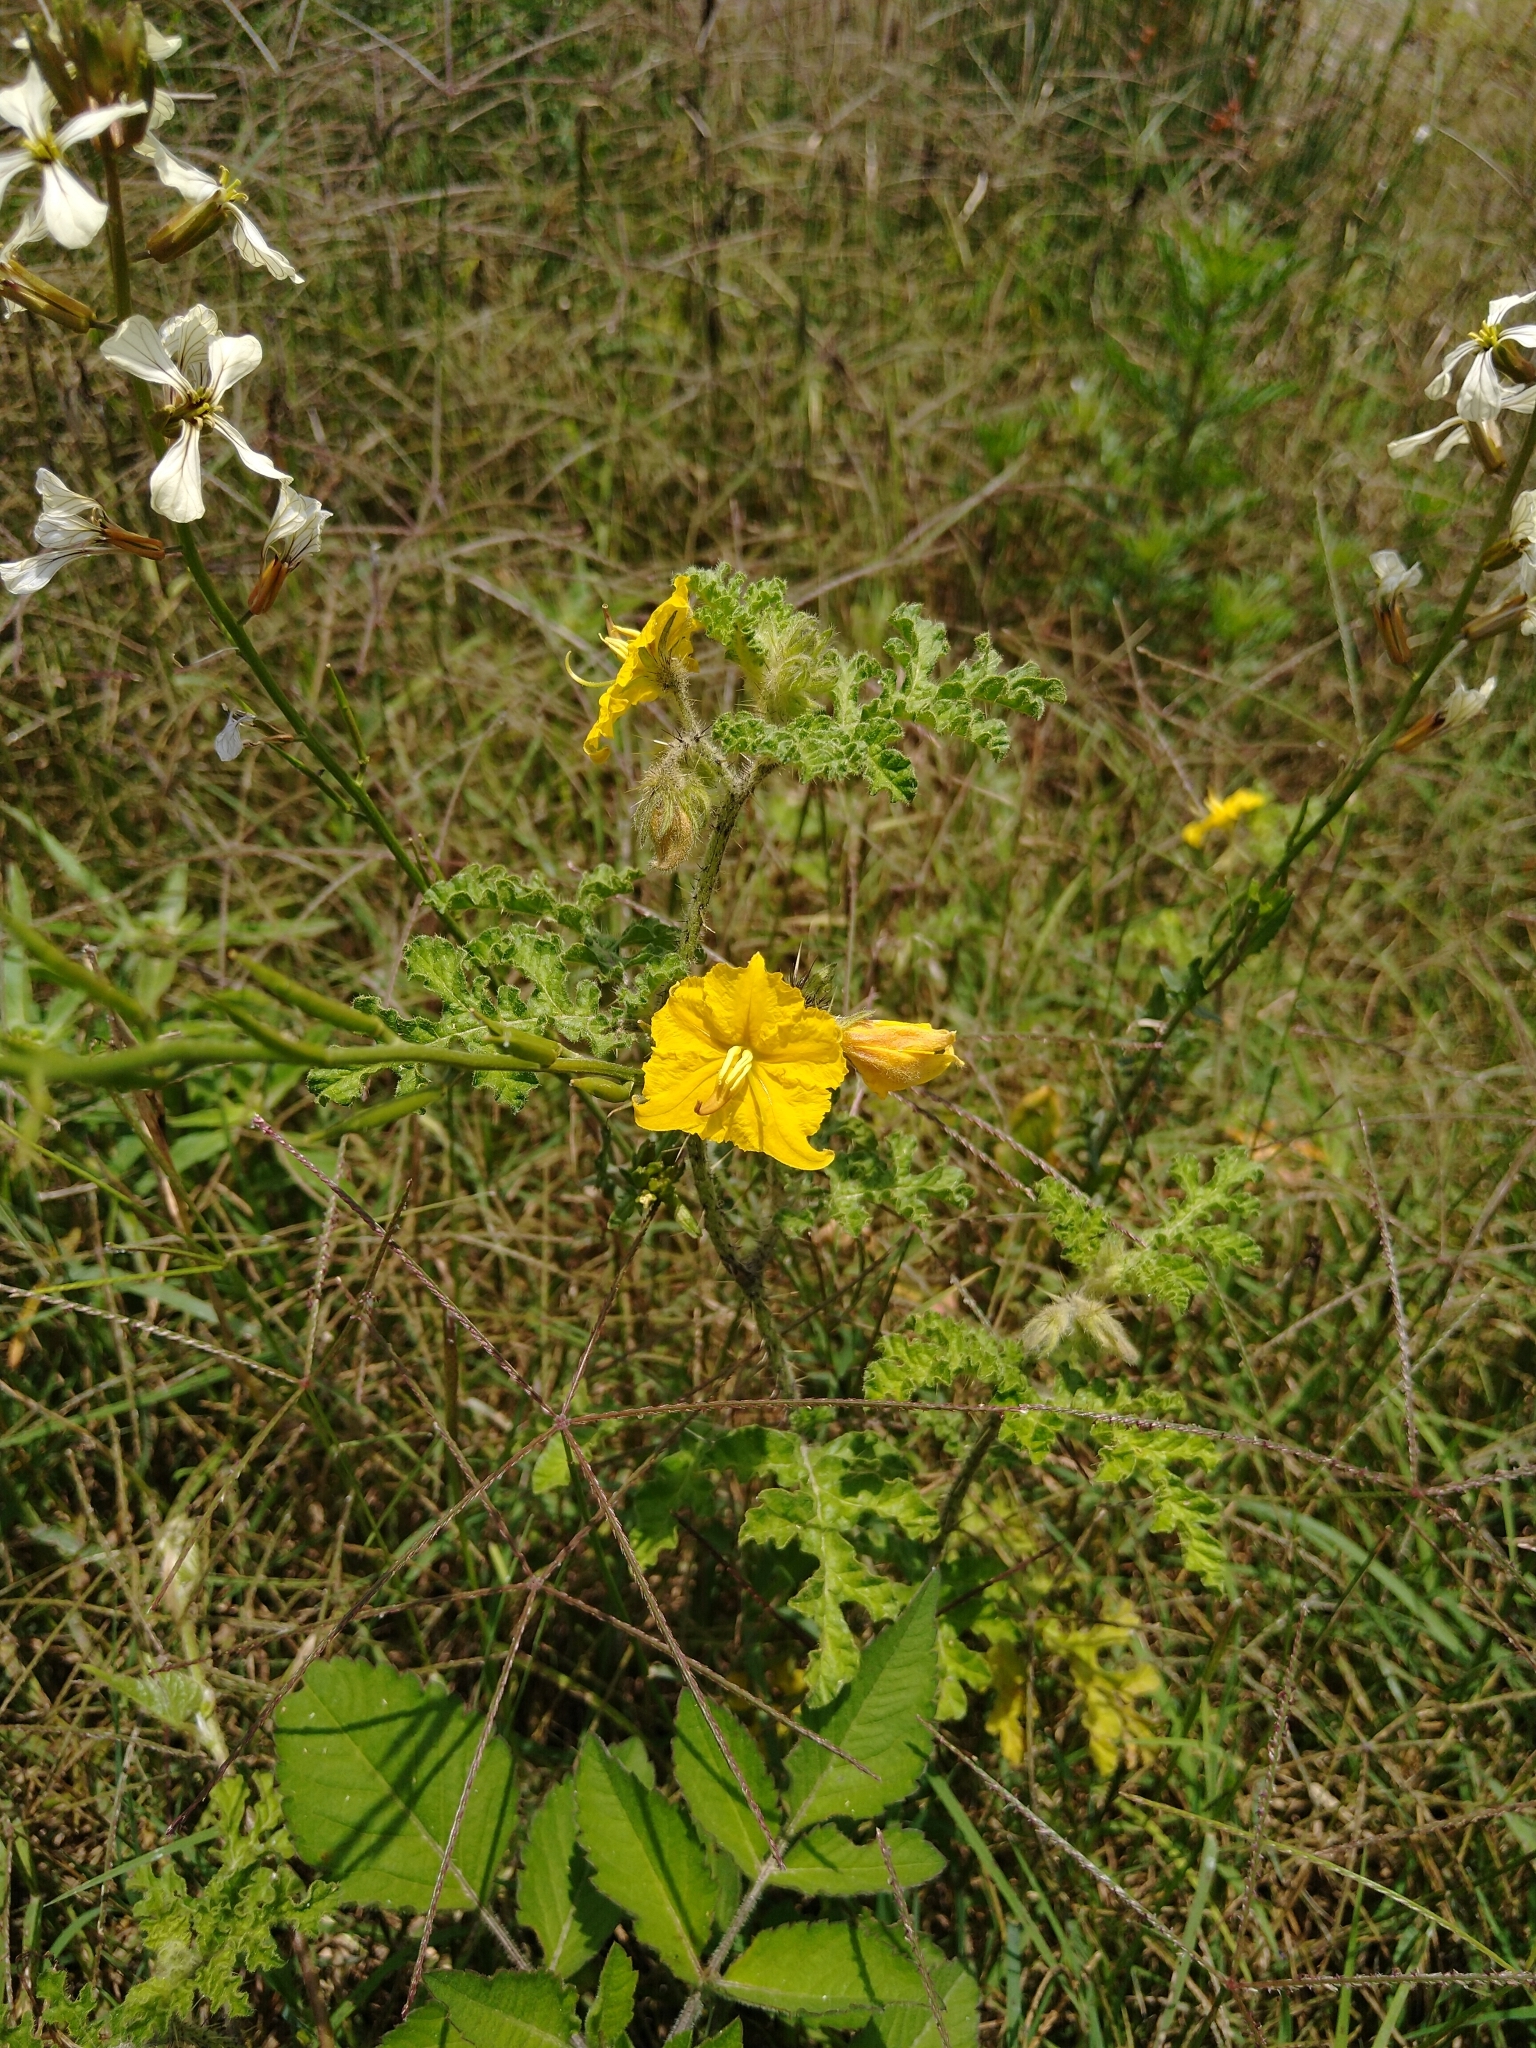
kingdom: Plantae
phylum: Tracheophyta
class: Magnoliopsida
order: Solanales
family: Solanaceae
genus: Solanum
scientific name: Solanum angustifolium
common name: Buffalobur nightshade
